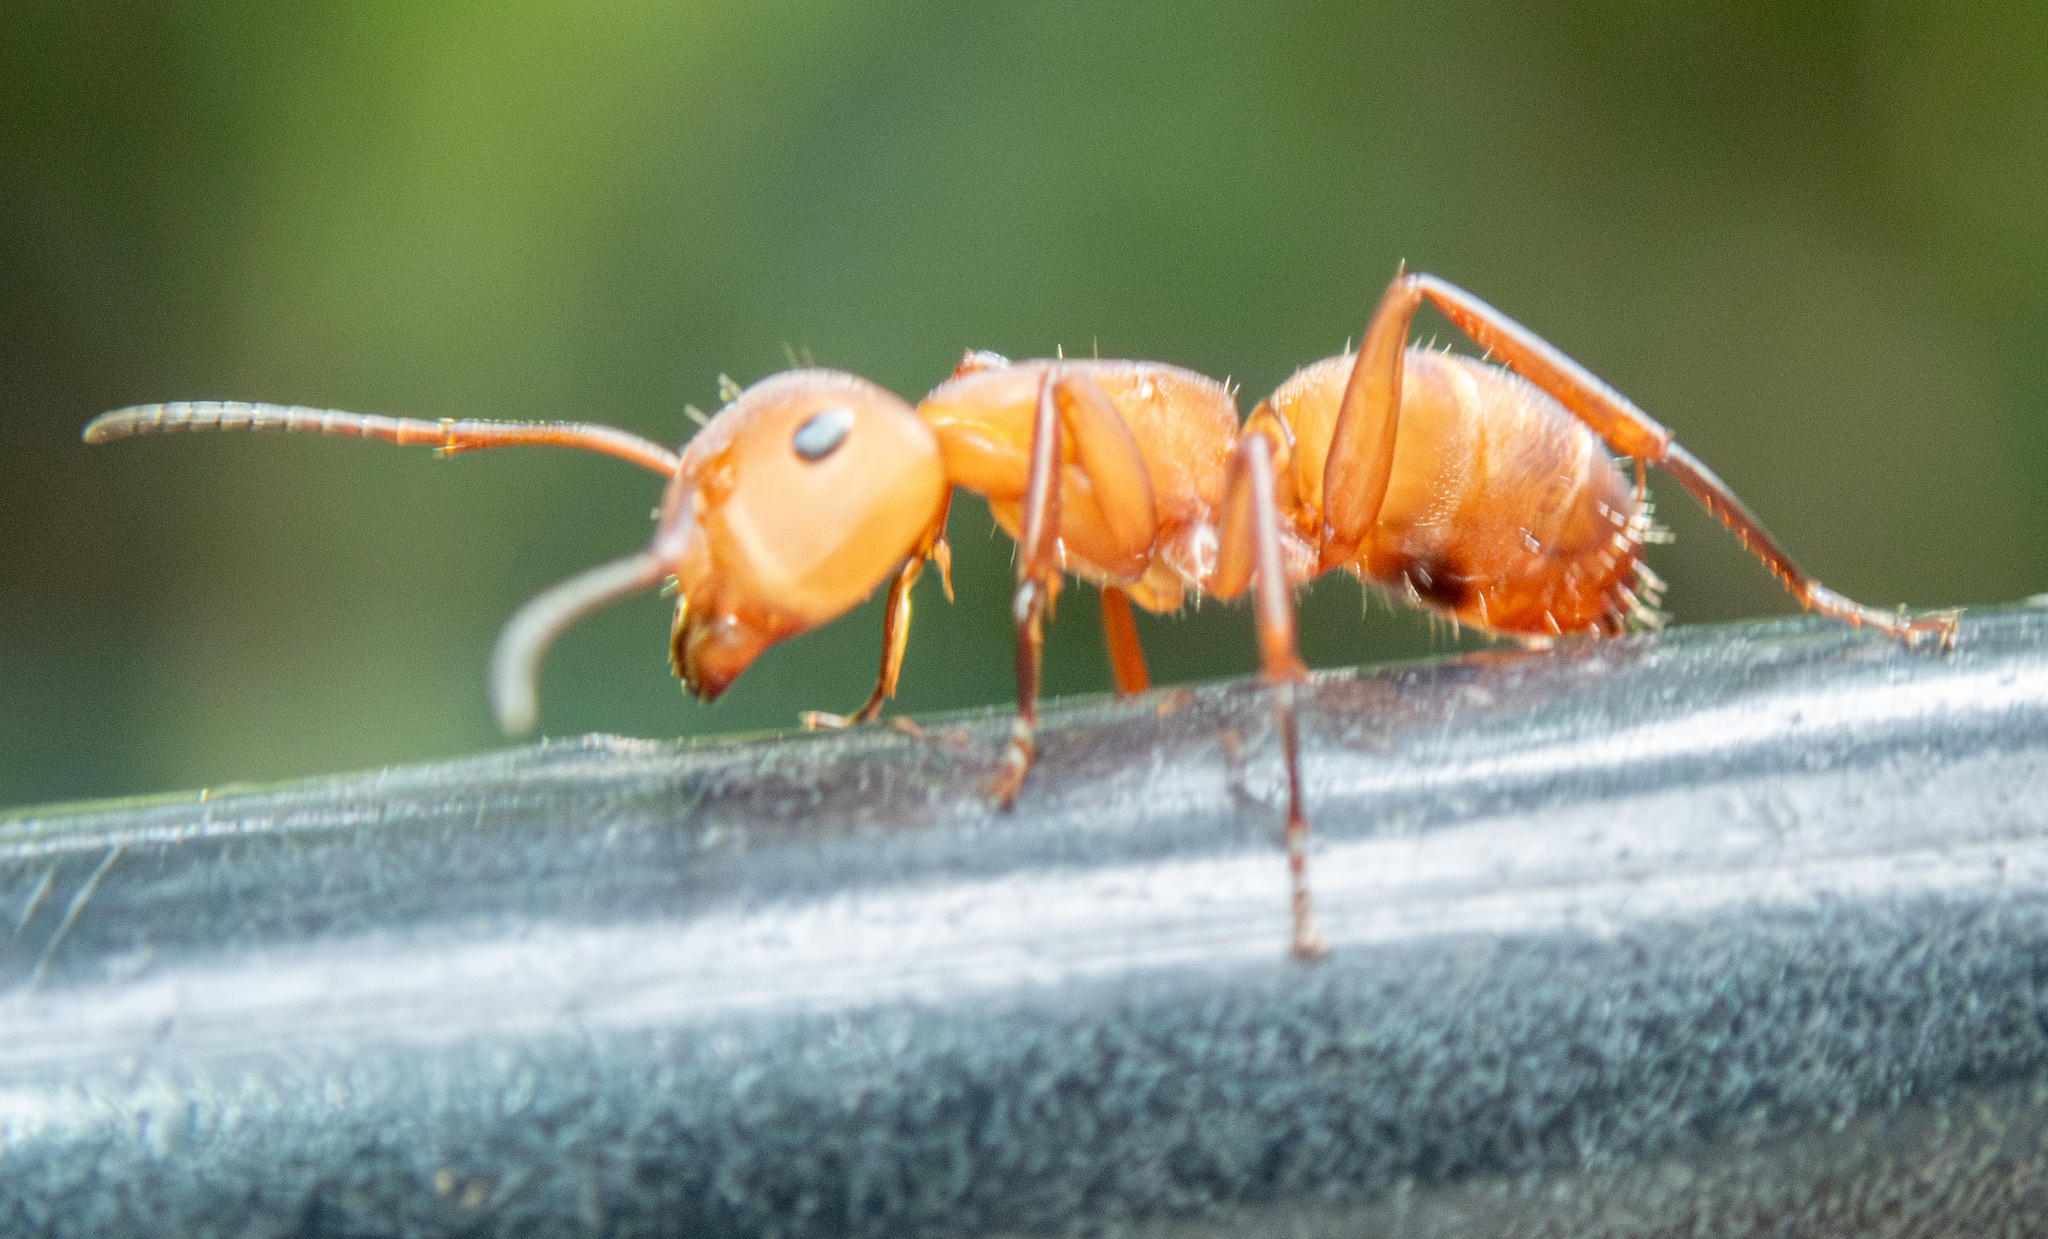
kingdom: Animalia
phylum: Arthropoda
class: Insecta
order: Hymenoptera
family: Formicidae
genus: Camponotus
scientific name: Camponotus rectangularis
